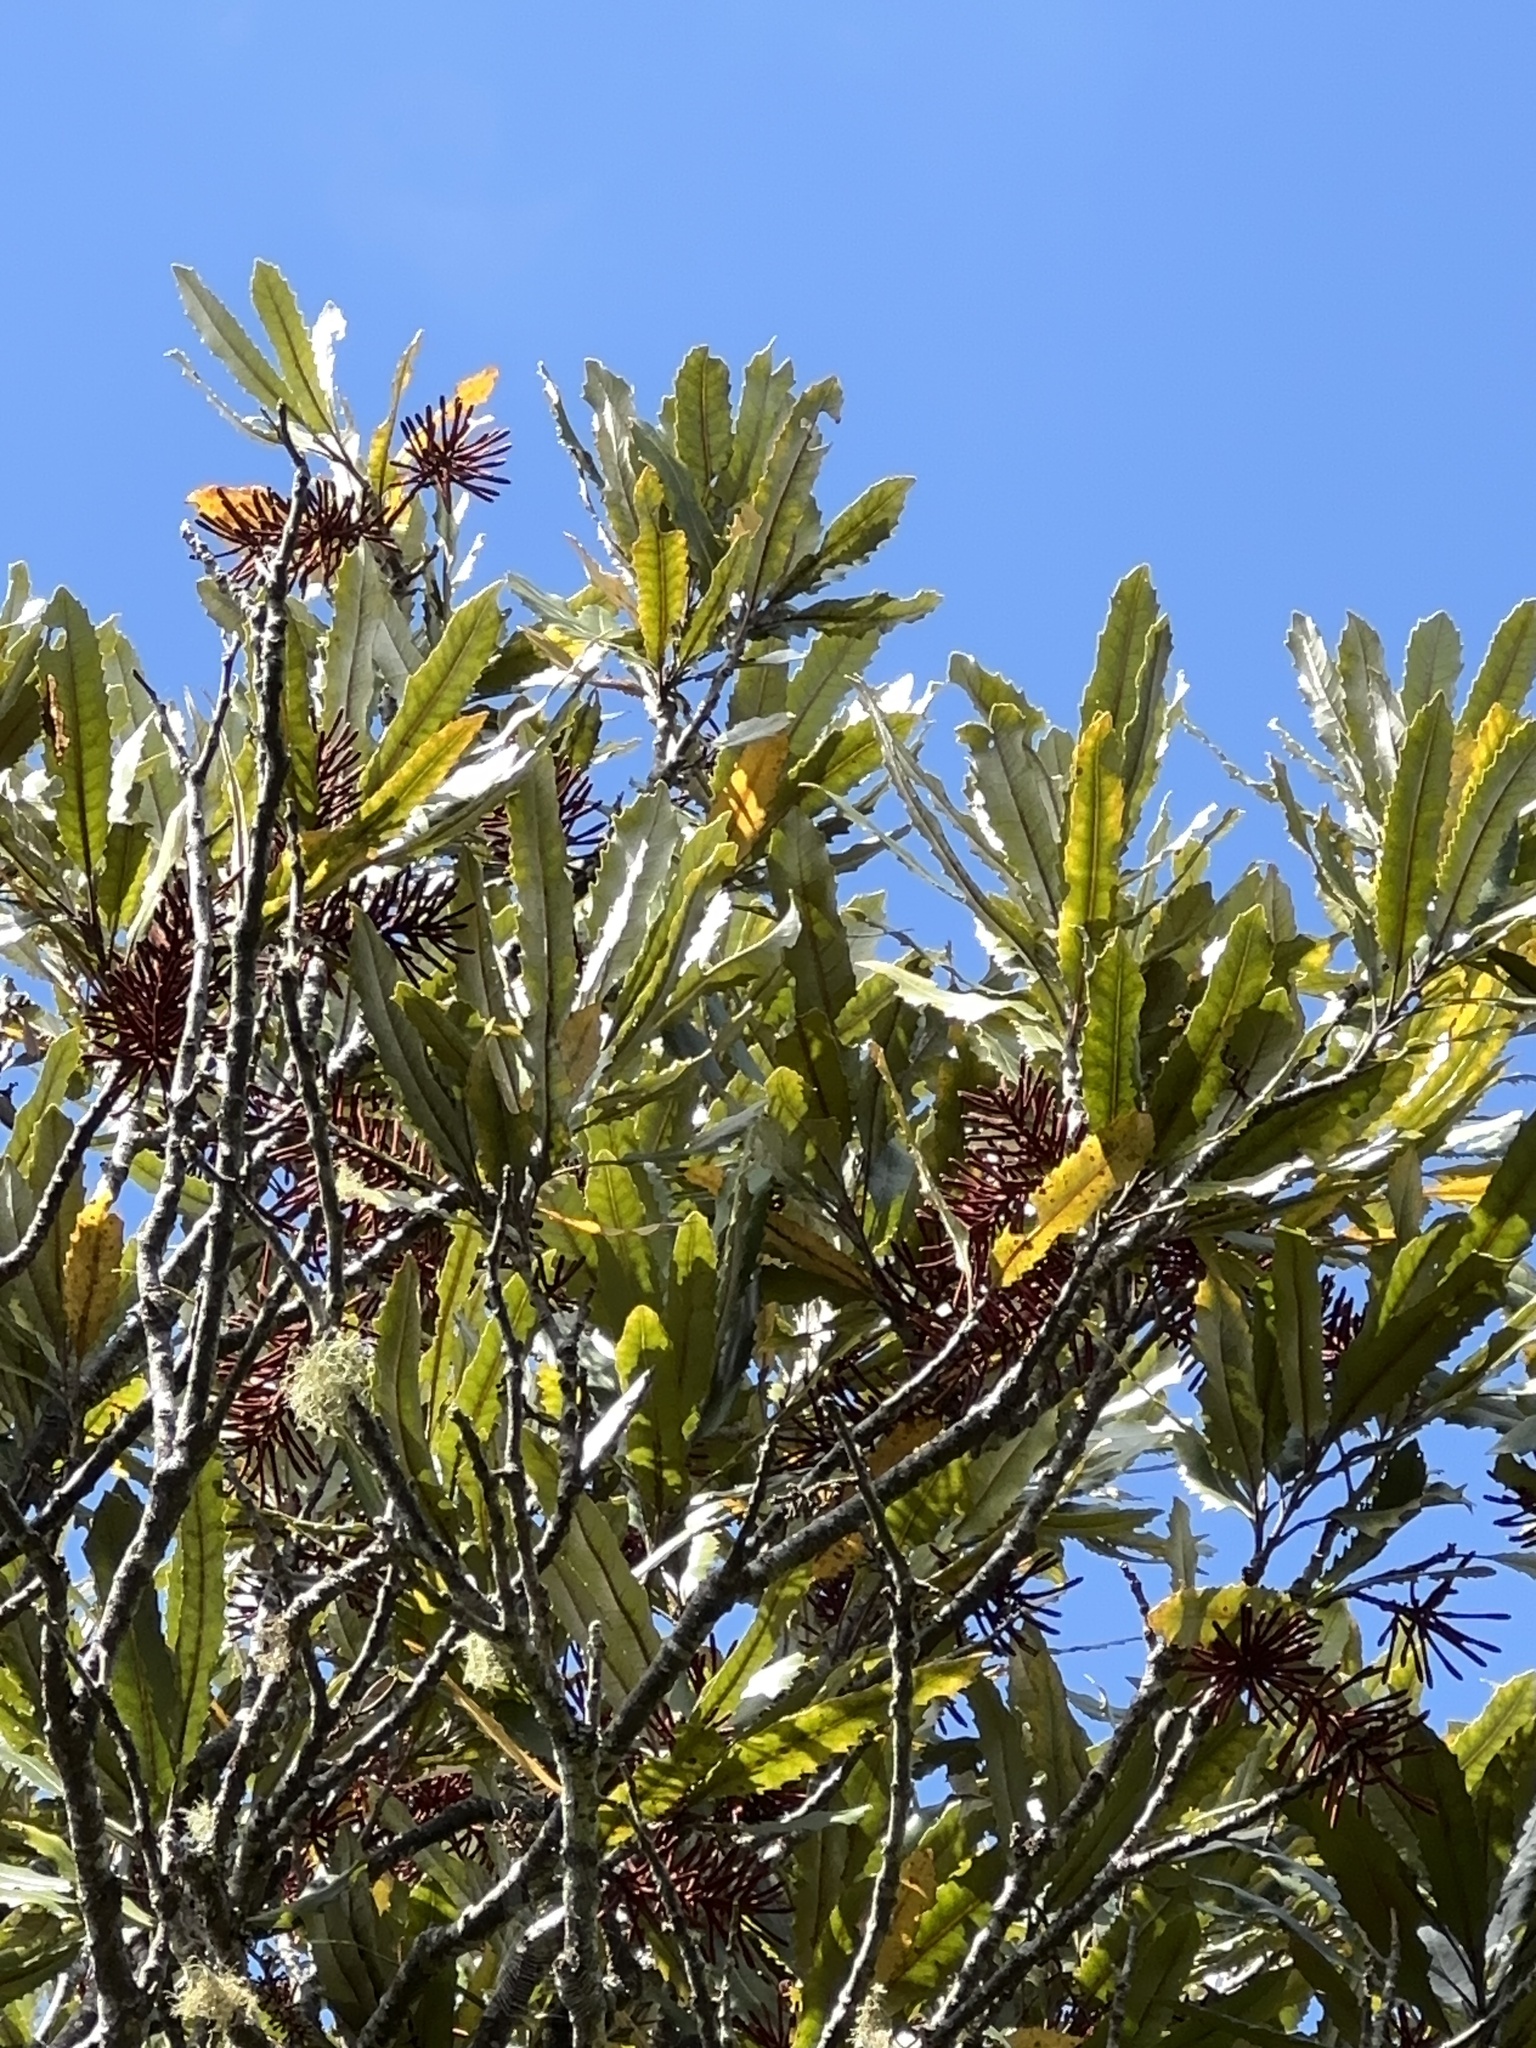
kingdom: Plantae
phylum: Tracheophyta
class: Magnoliopsida
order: Proteales
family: Proteaceae
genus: Knightia
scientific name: Knightia excelsa
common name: New zealand-honeysuckle
